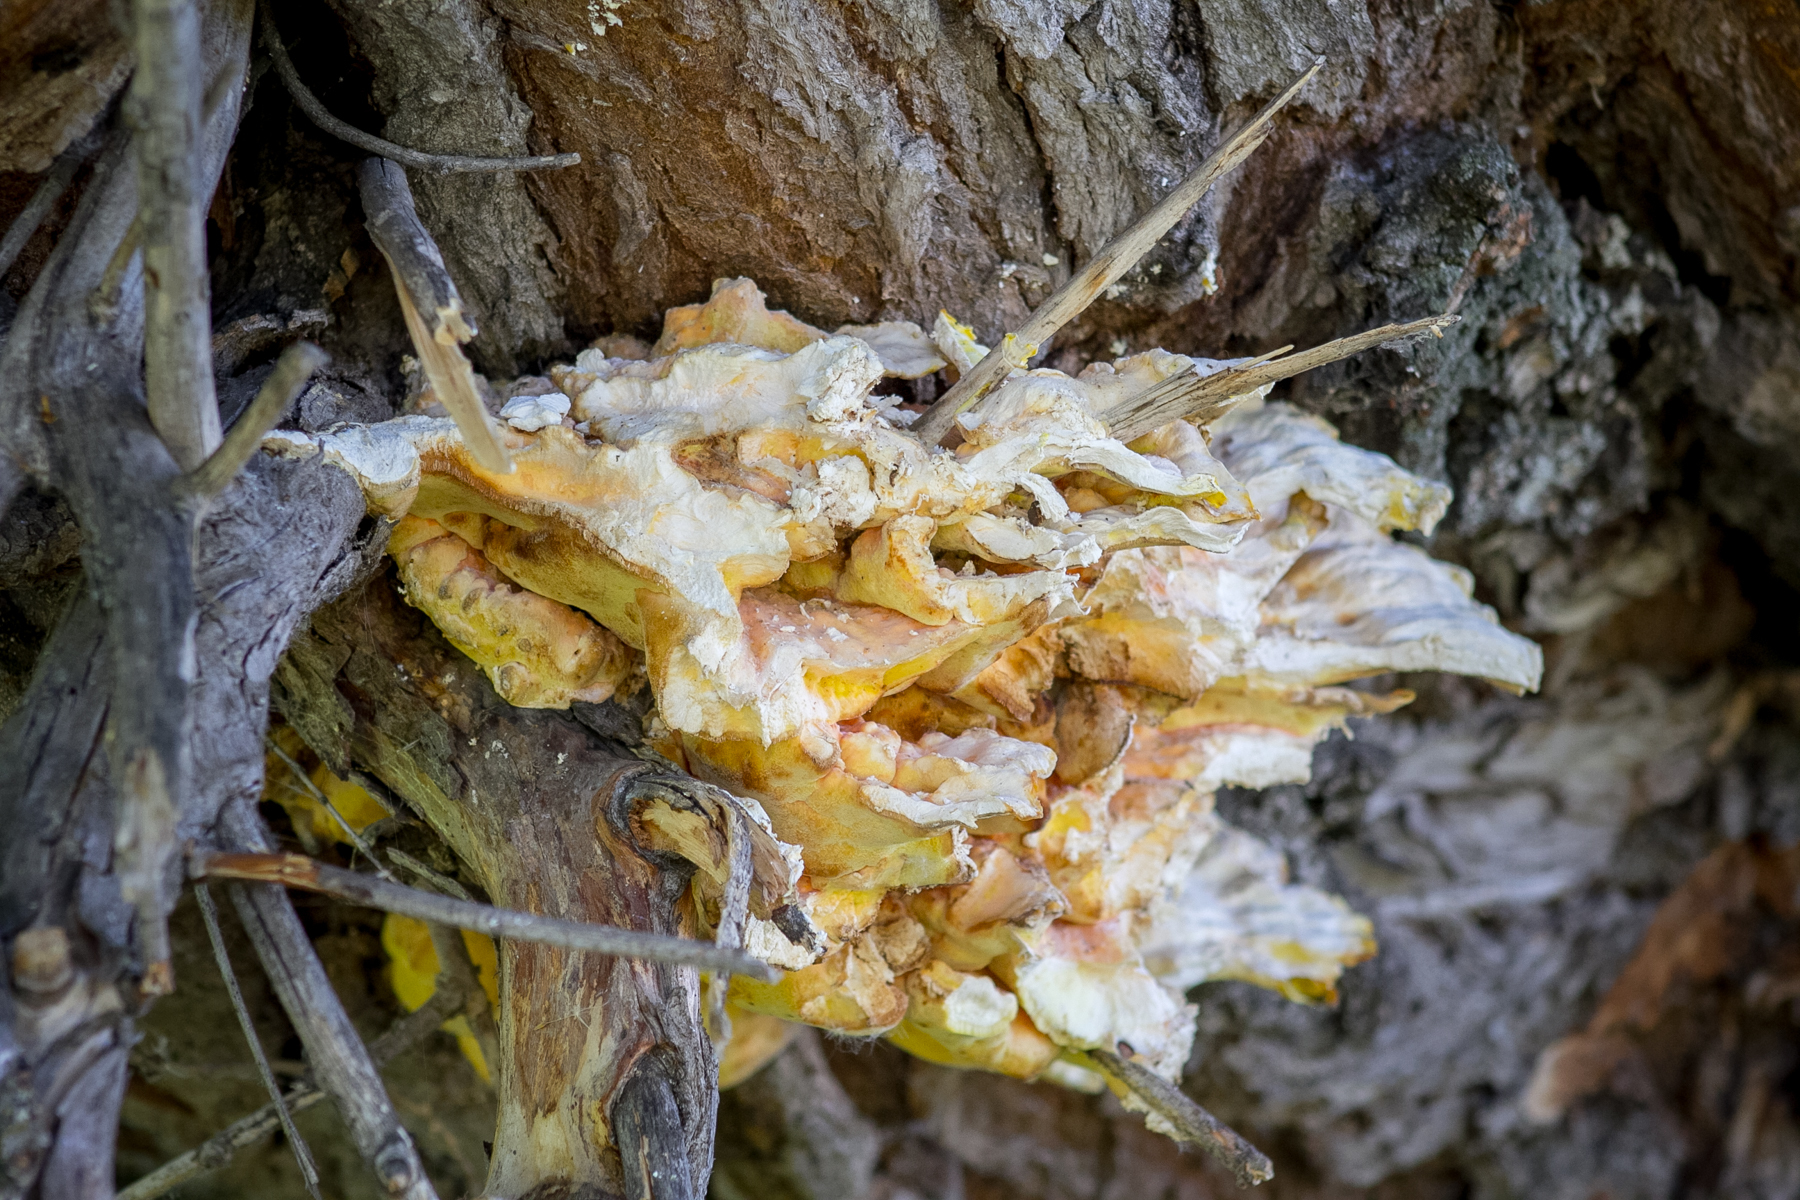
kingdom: Fungi
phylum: Basidiomycota
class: Agaricomycetes
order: Polyporales
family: Laetiporaceae
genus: Laetiporus
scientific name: Laetiporus sulphureus
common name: Chicken of the woods
